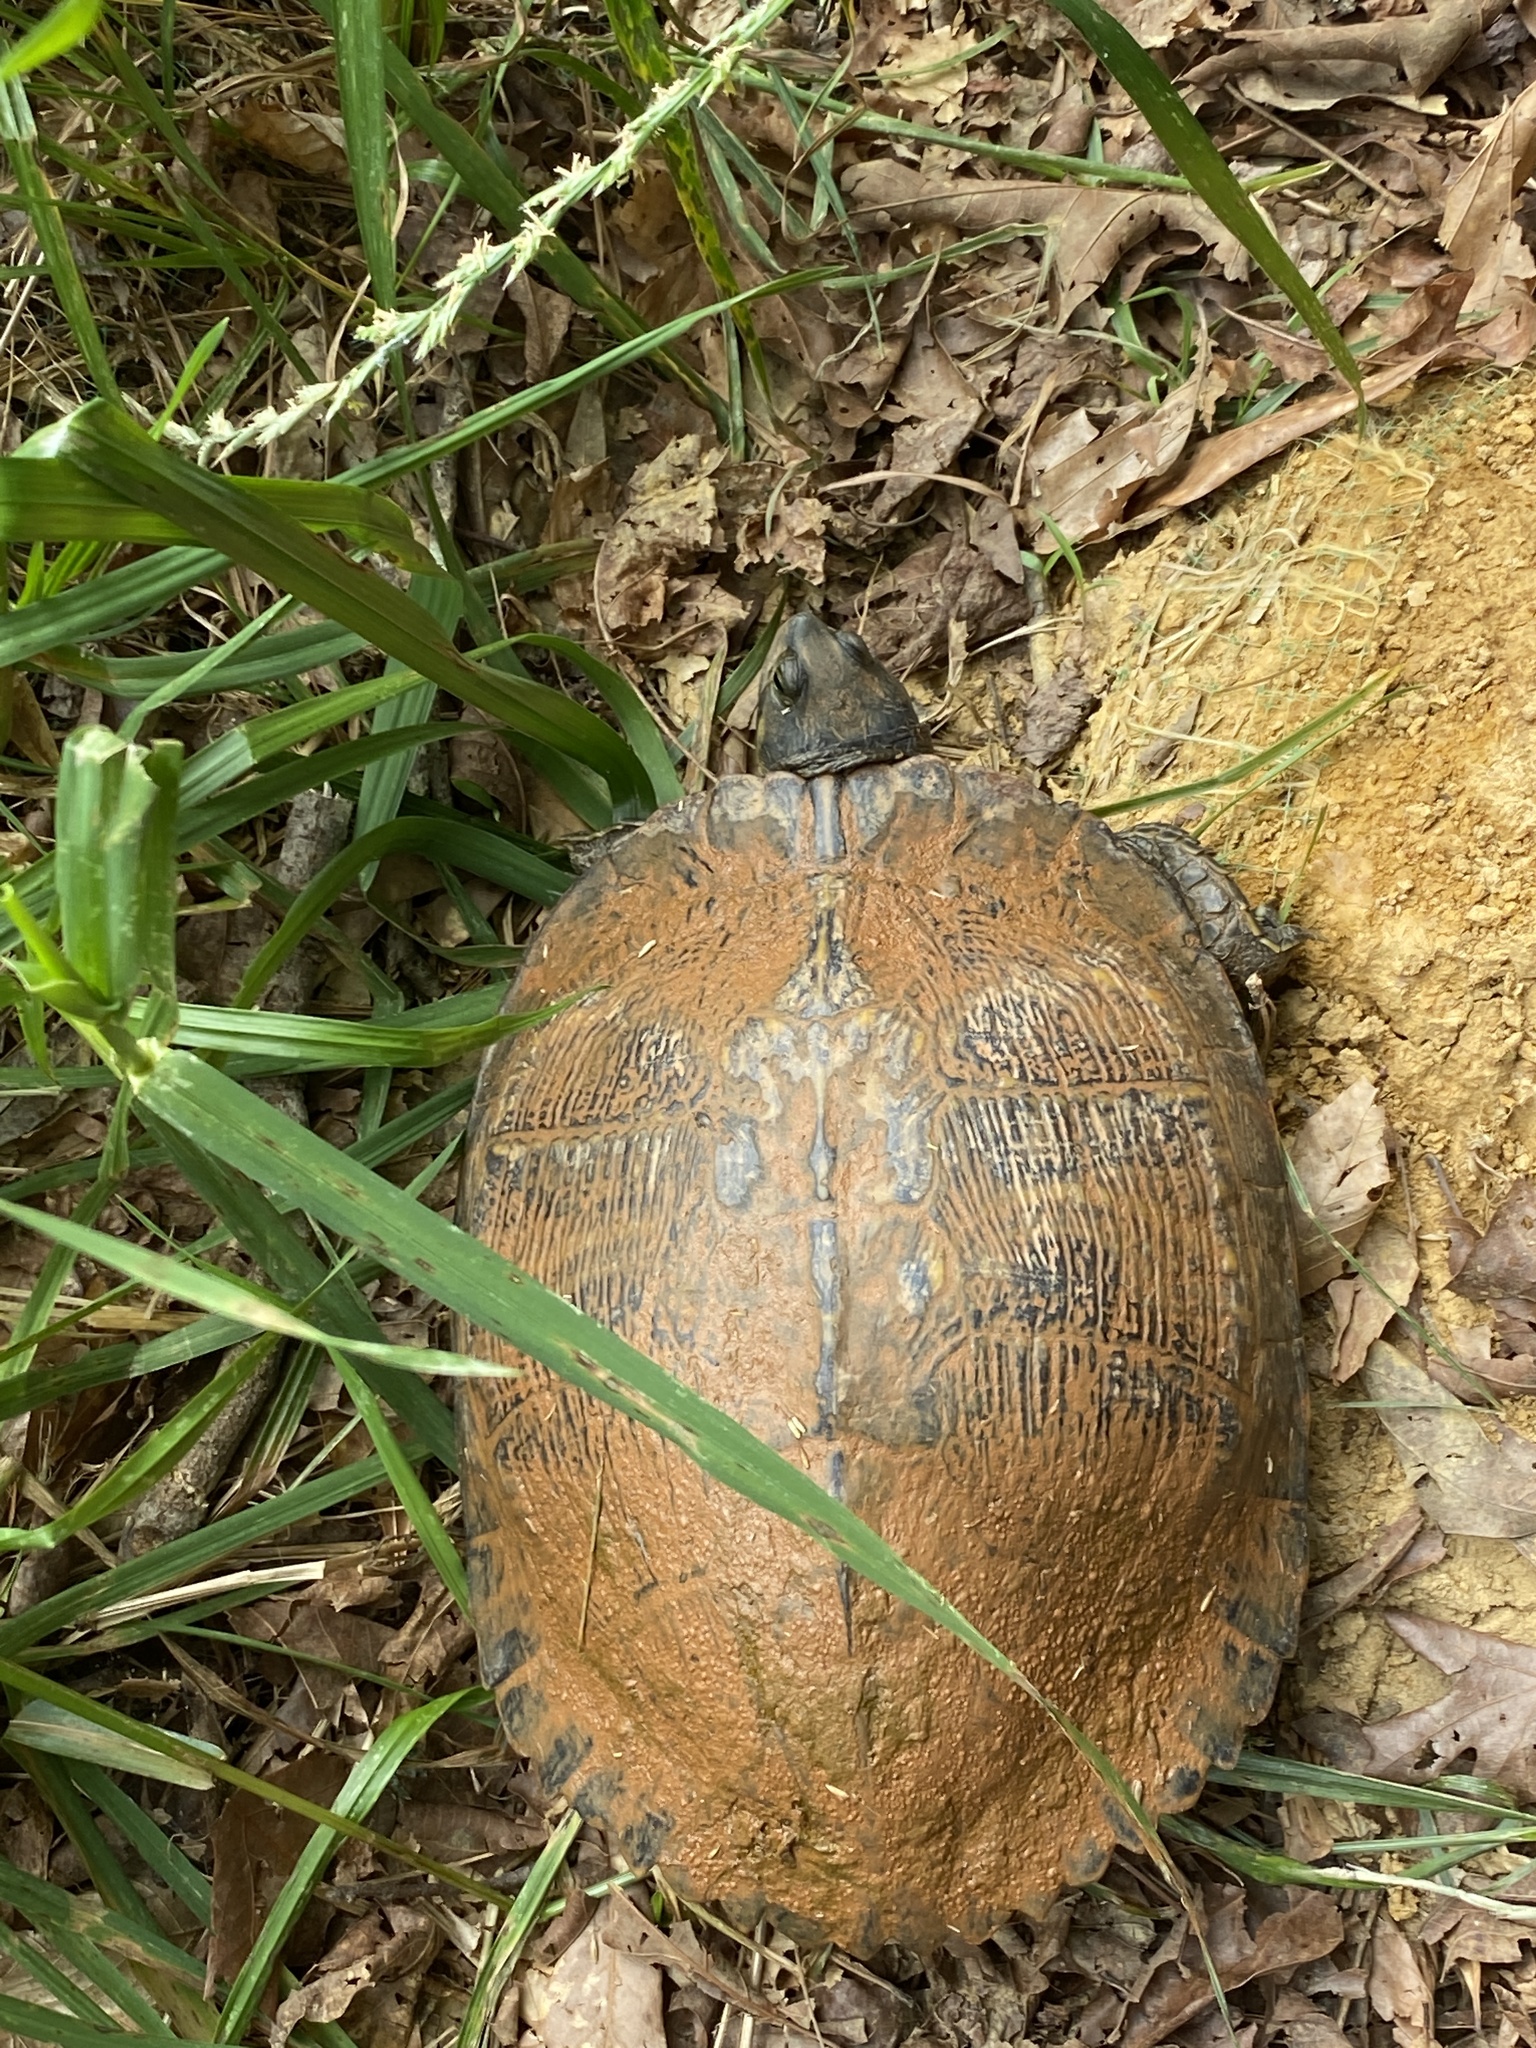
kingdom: Animalia
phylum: Chordata
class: Testudines
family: Emydidae
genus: Trachemys
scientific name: Trachemys scripta
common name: Slider
